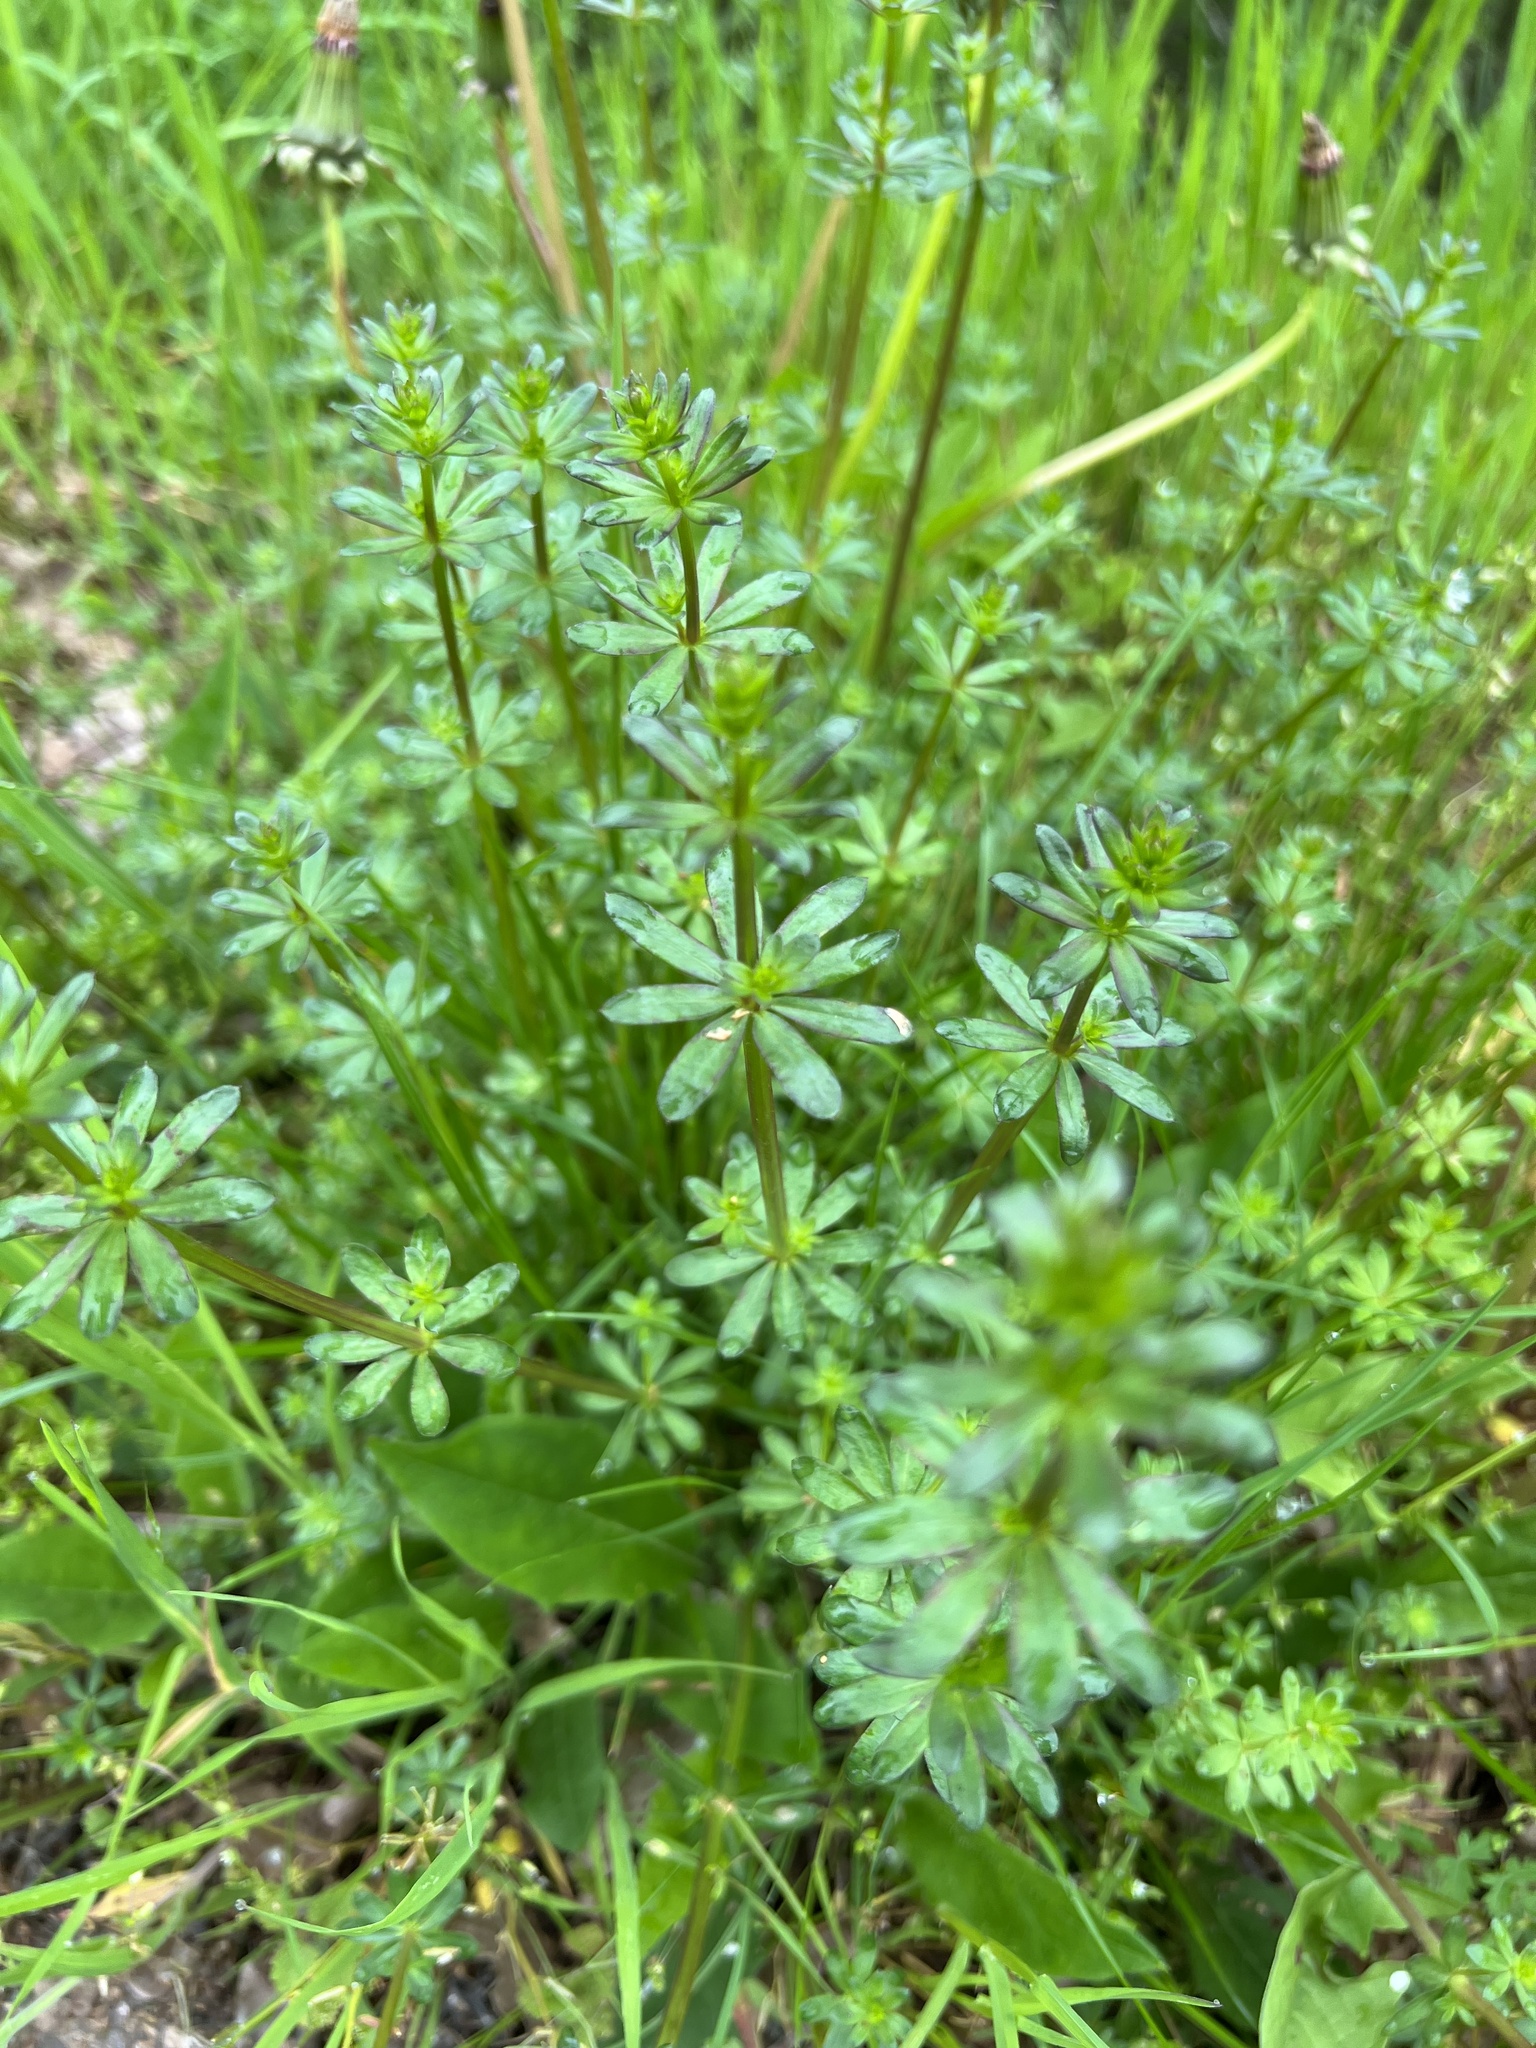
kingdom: Plantae
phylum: Tracheophyta
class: Liliopsida
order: Alismatales
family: Araceae
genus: Arum
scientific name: Arum maculatum
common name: Lords-and-ladies
